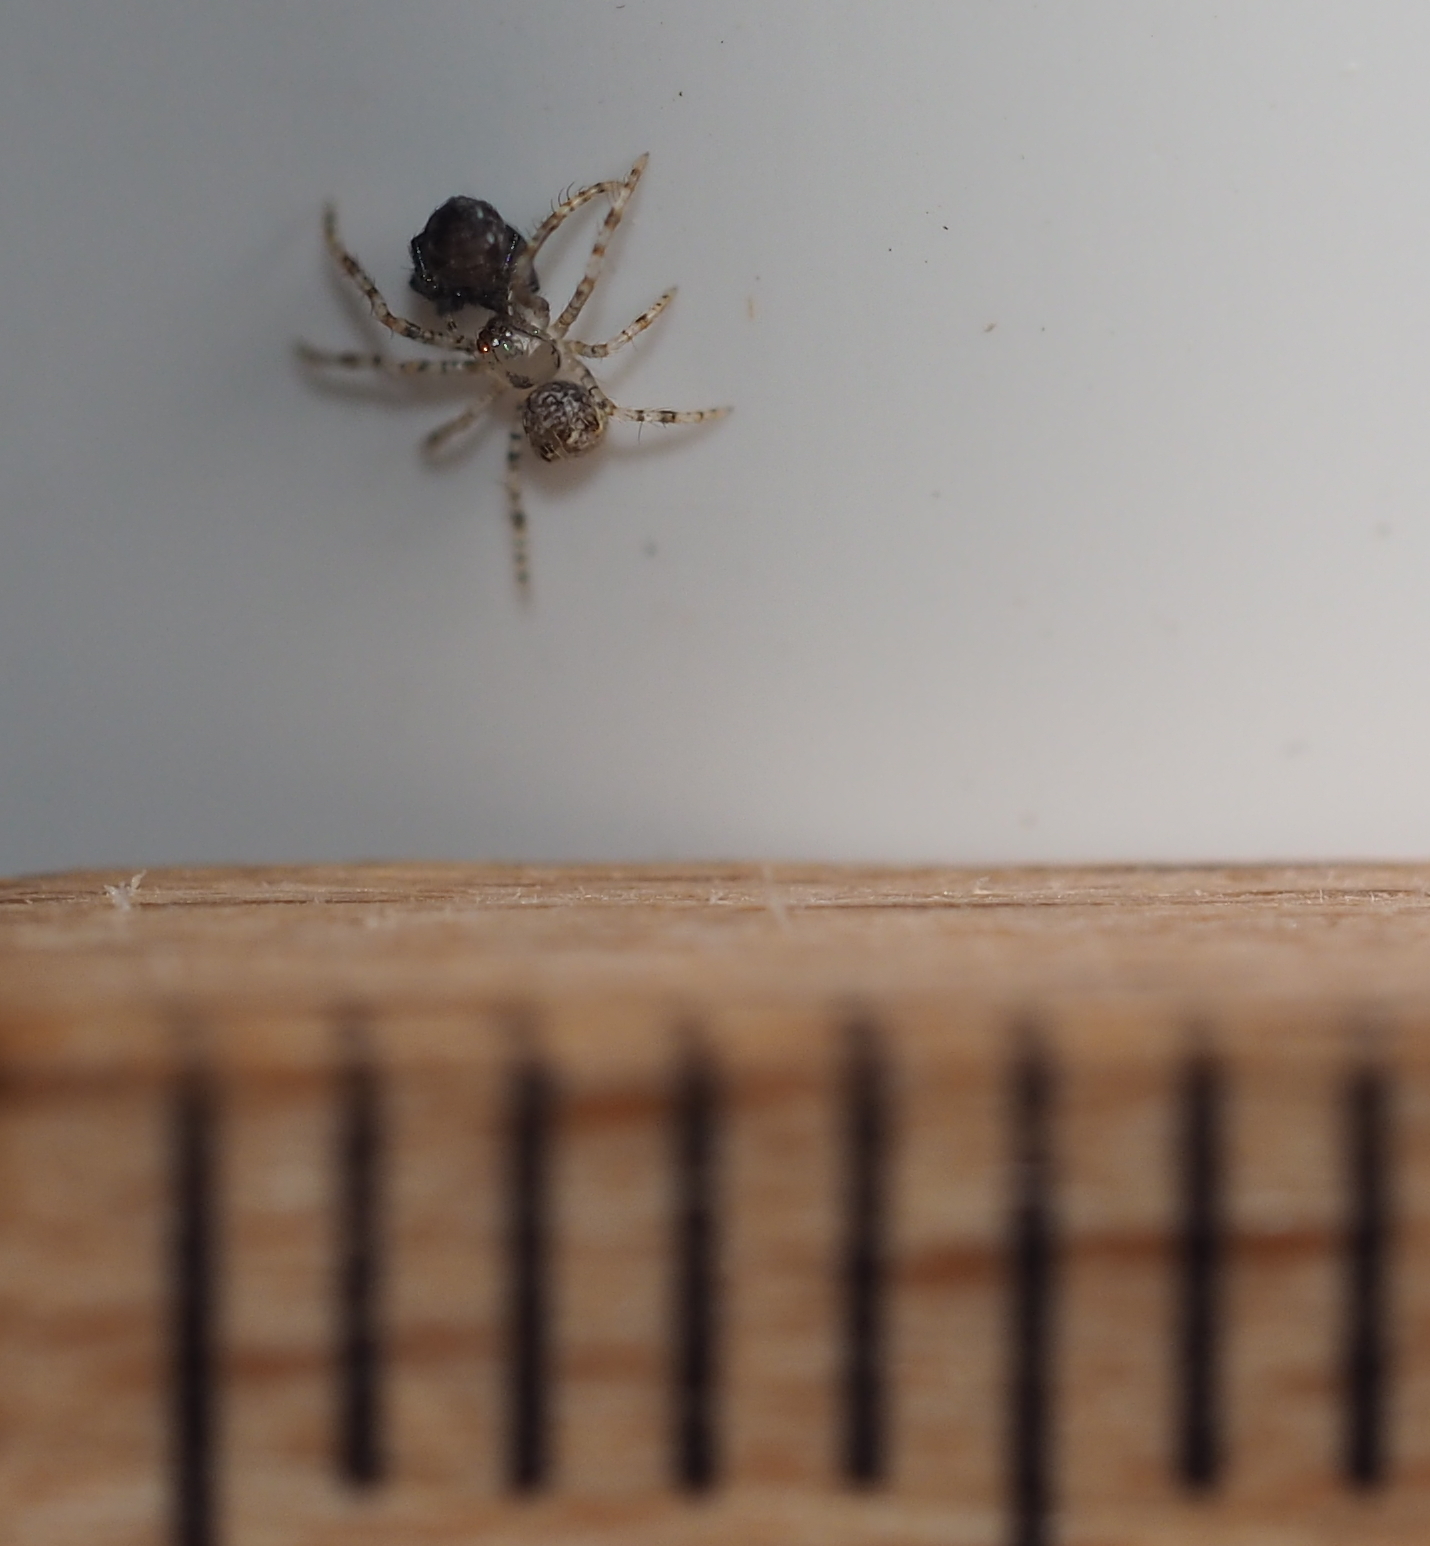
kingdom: Animalia
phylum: Arthropoda
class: Arachnida
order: Araneae
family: Mimetidae
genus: Ero
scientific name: Ero aphana
